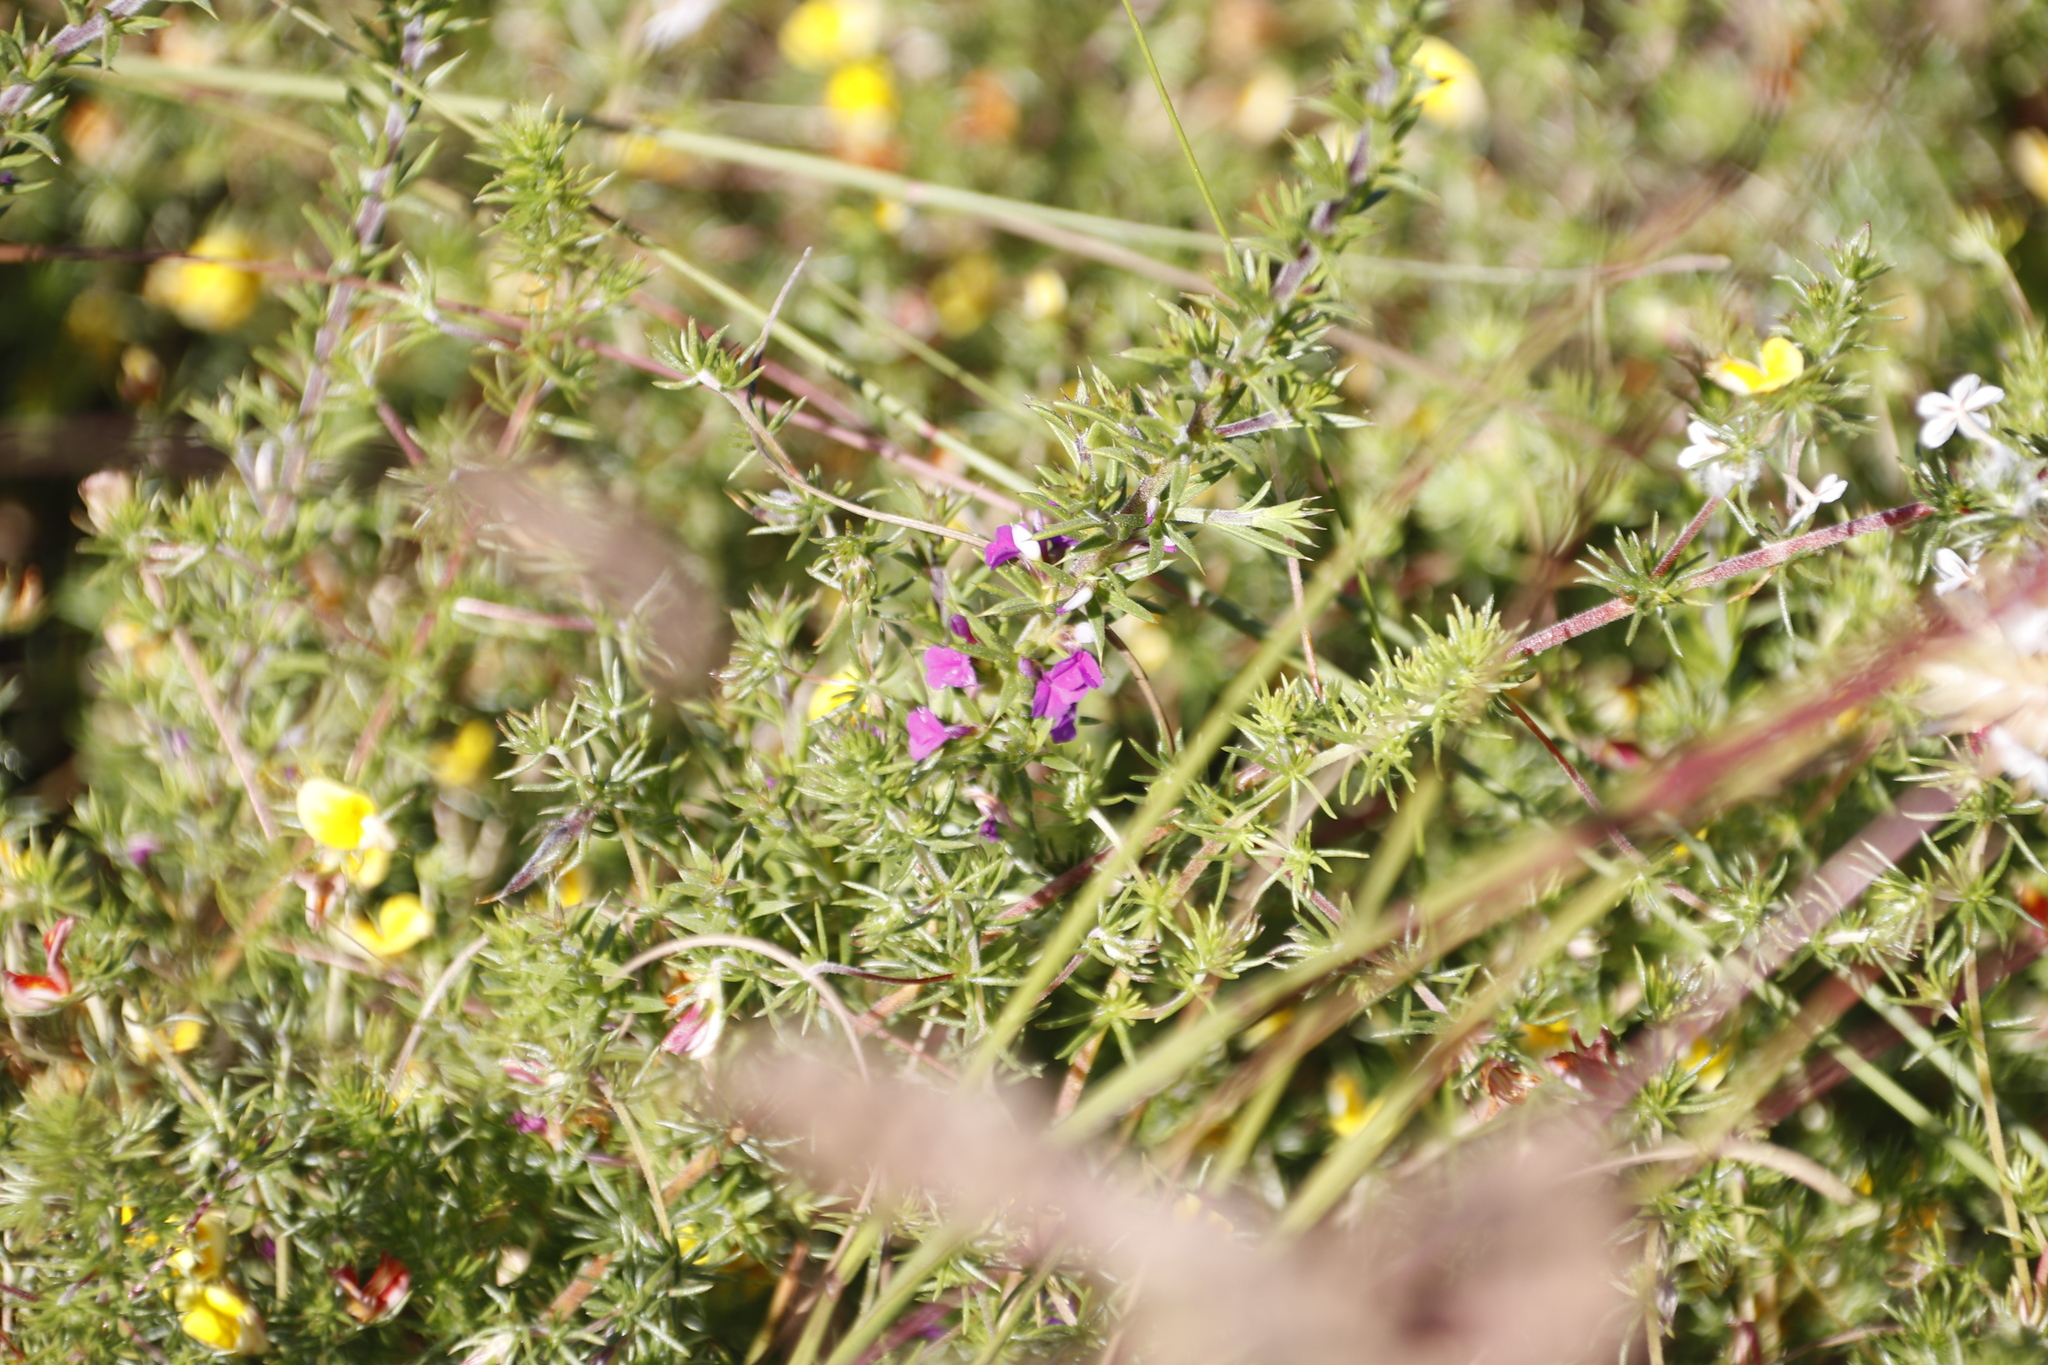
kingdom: Plantae
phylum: Tracheophyta
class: Magnoliopsida
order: Fabales
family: Polygalaceae
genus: Muraltia
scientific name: Muraltia heisteria
